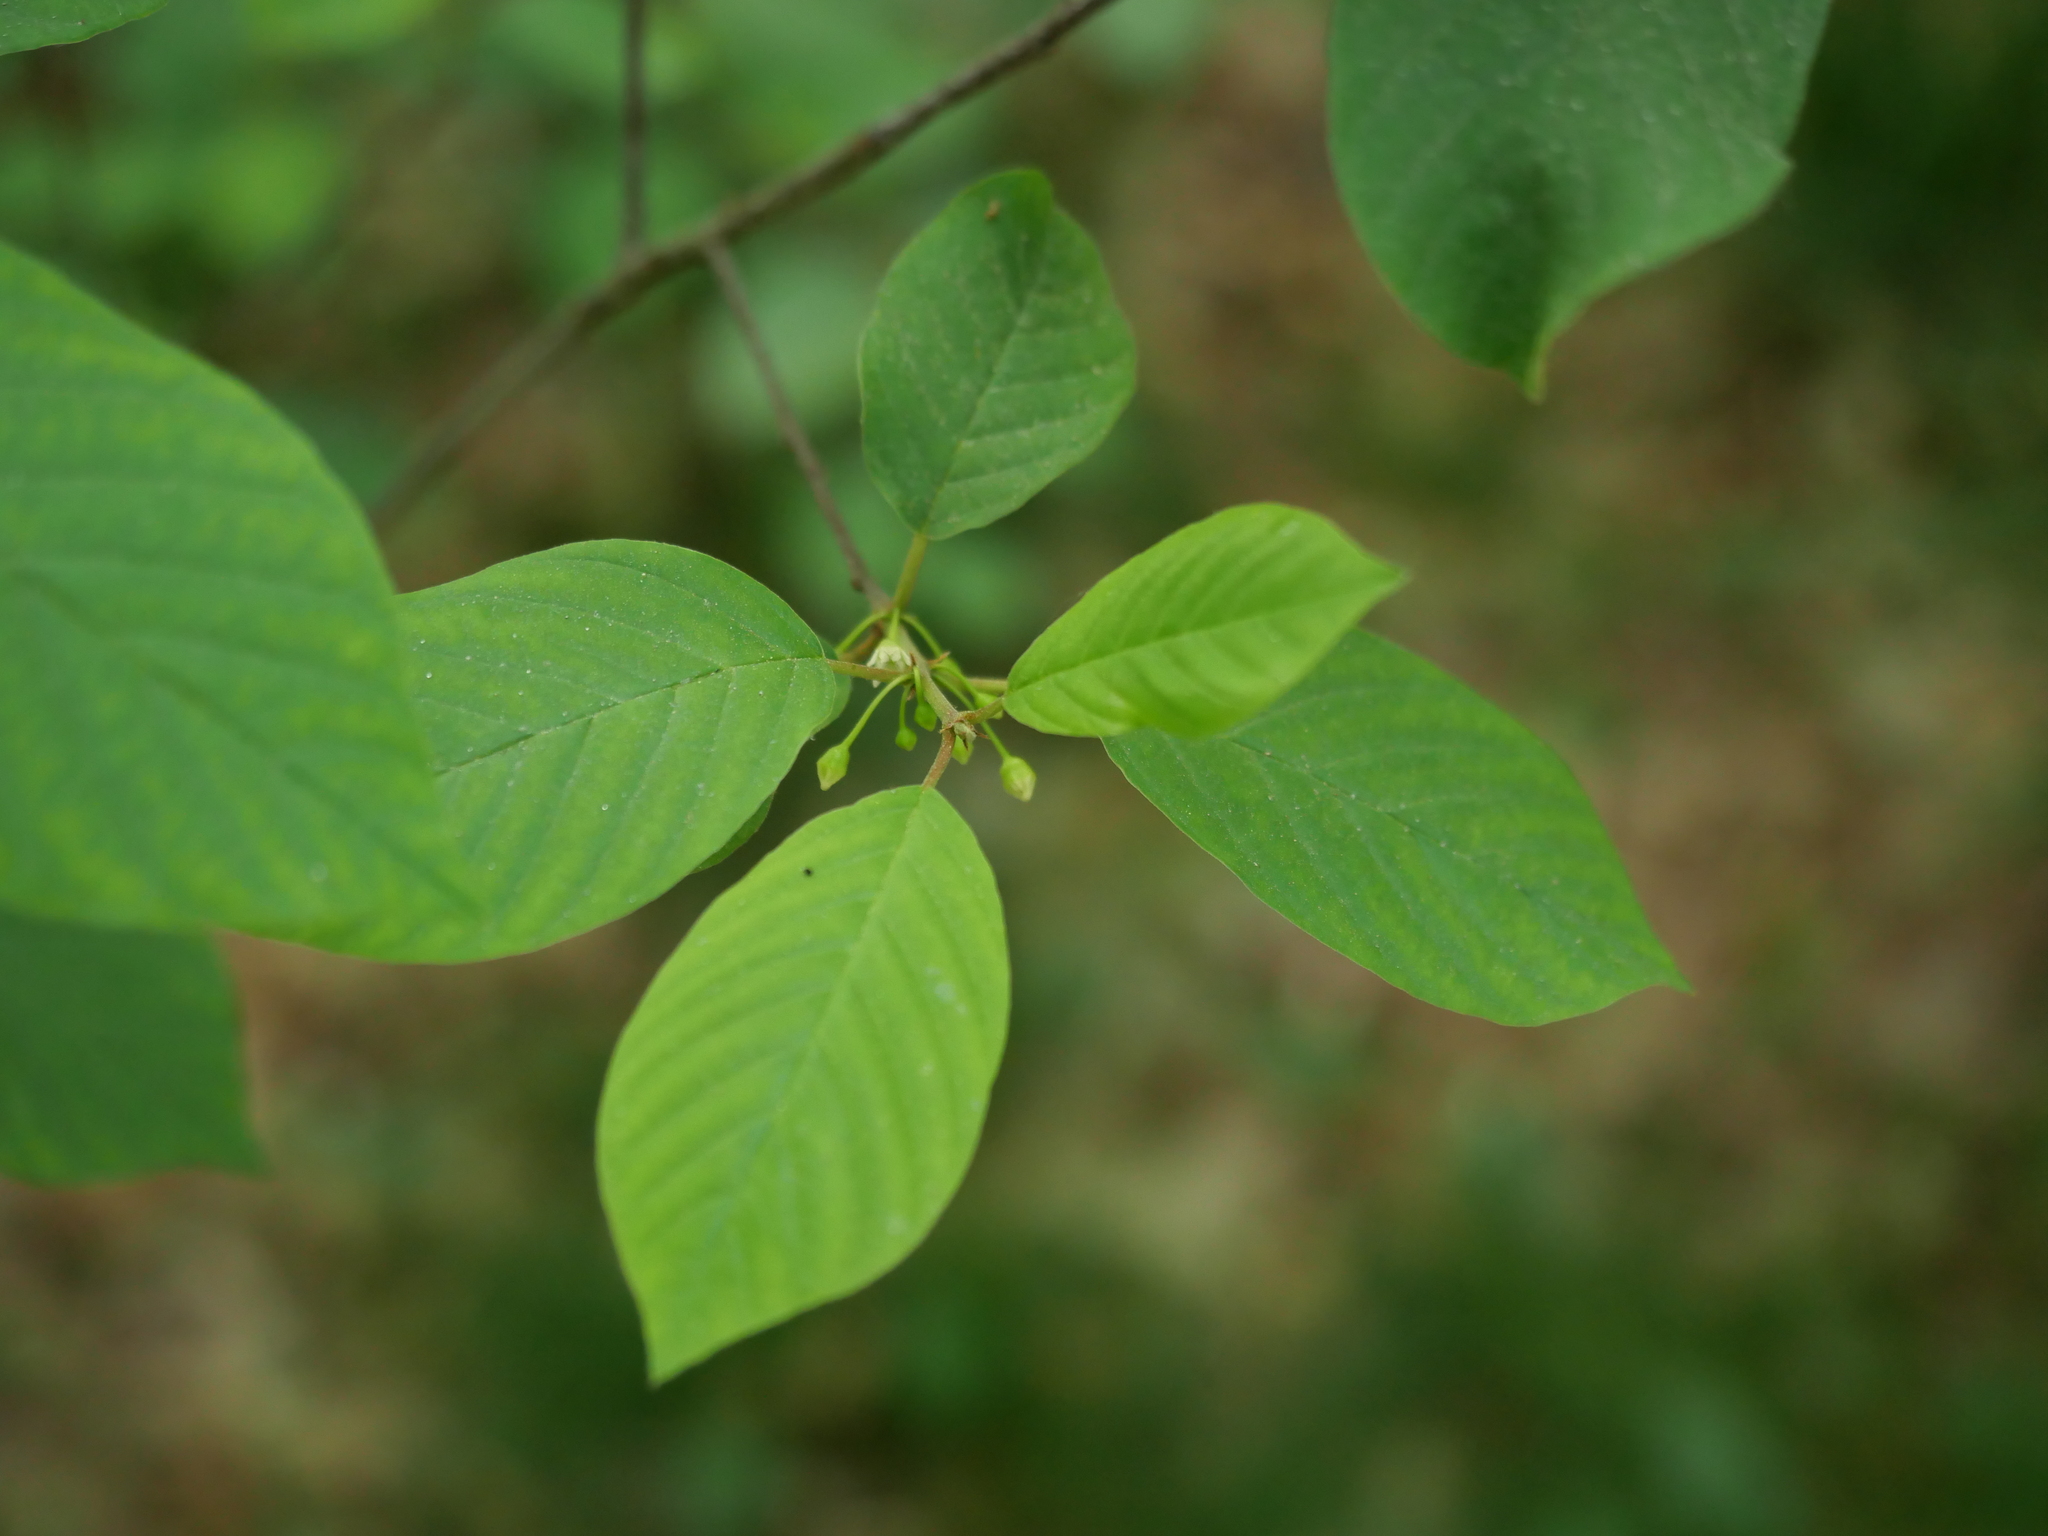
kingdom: Plantae
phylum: Tracheophyta
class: Magnoliopsida
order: Rosales
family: Rhamnaceae
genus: Frangula
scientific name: Frangula alnus
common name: Alder buckthorn
